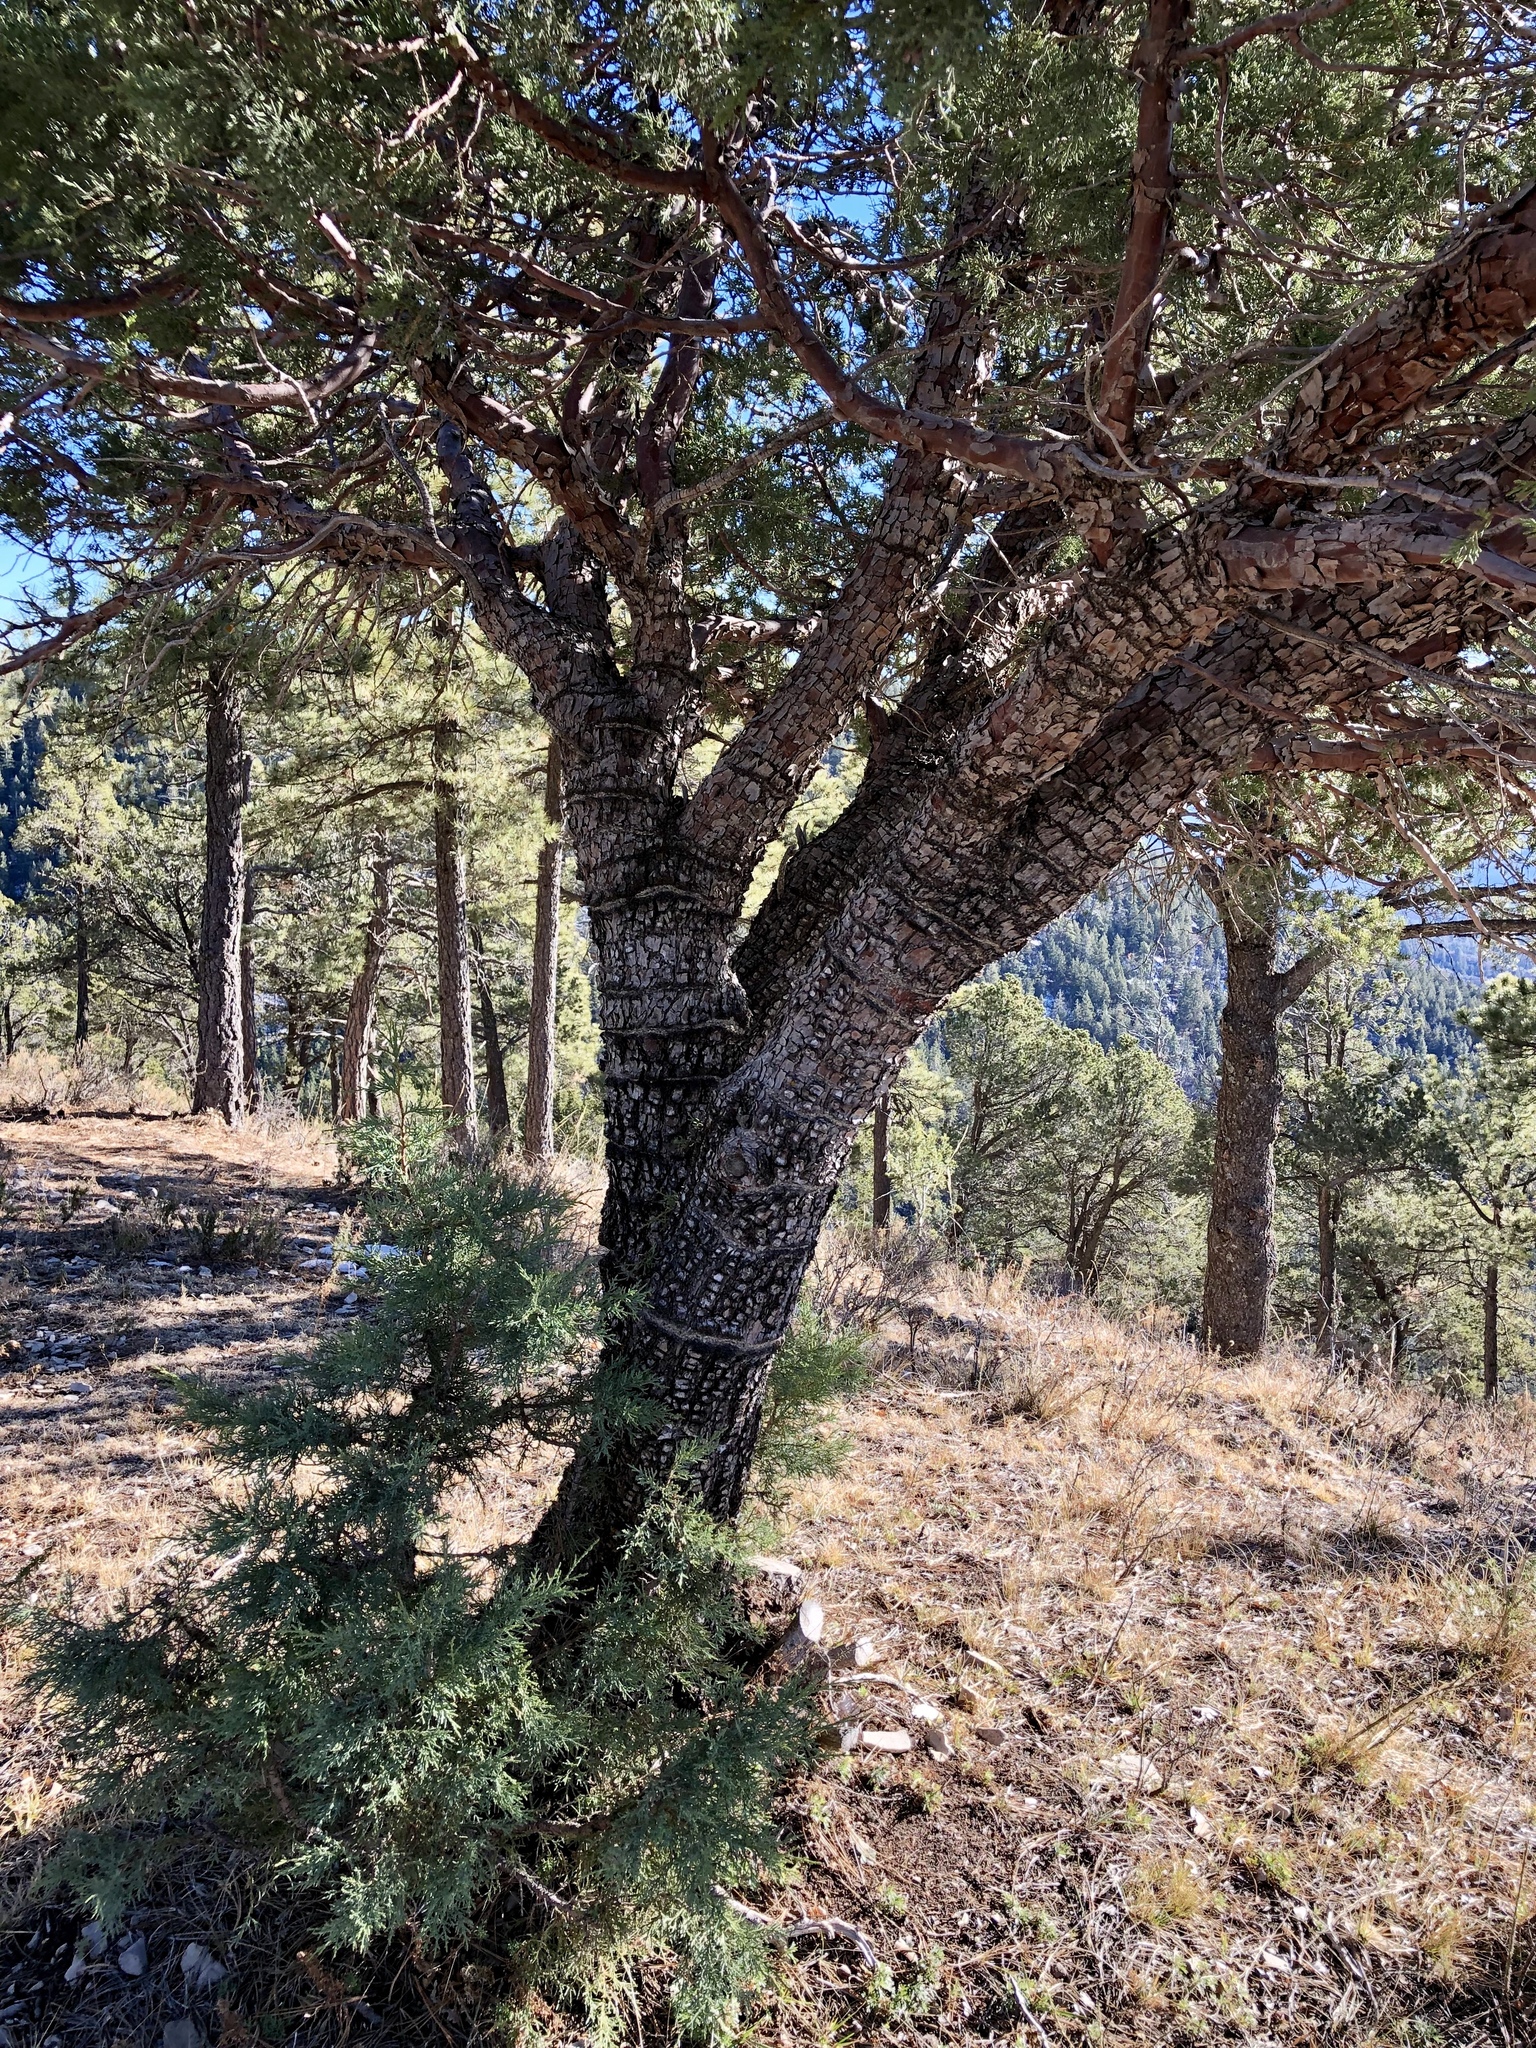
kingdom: Plantae
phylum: Tracheophyta
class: Pinopsida
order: Pinales
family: Cupressaceae
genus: Juniperus
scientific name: Juniperus deppeana
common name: Alligator juniper
